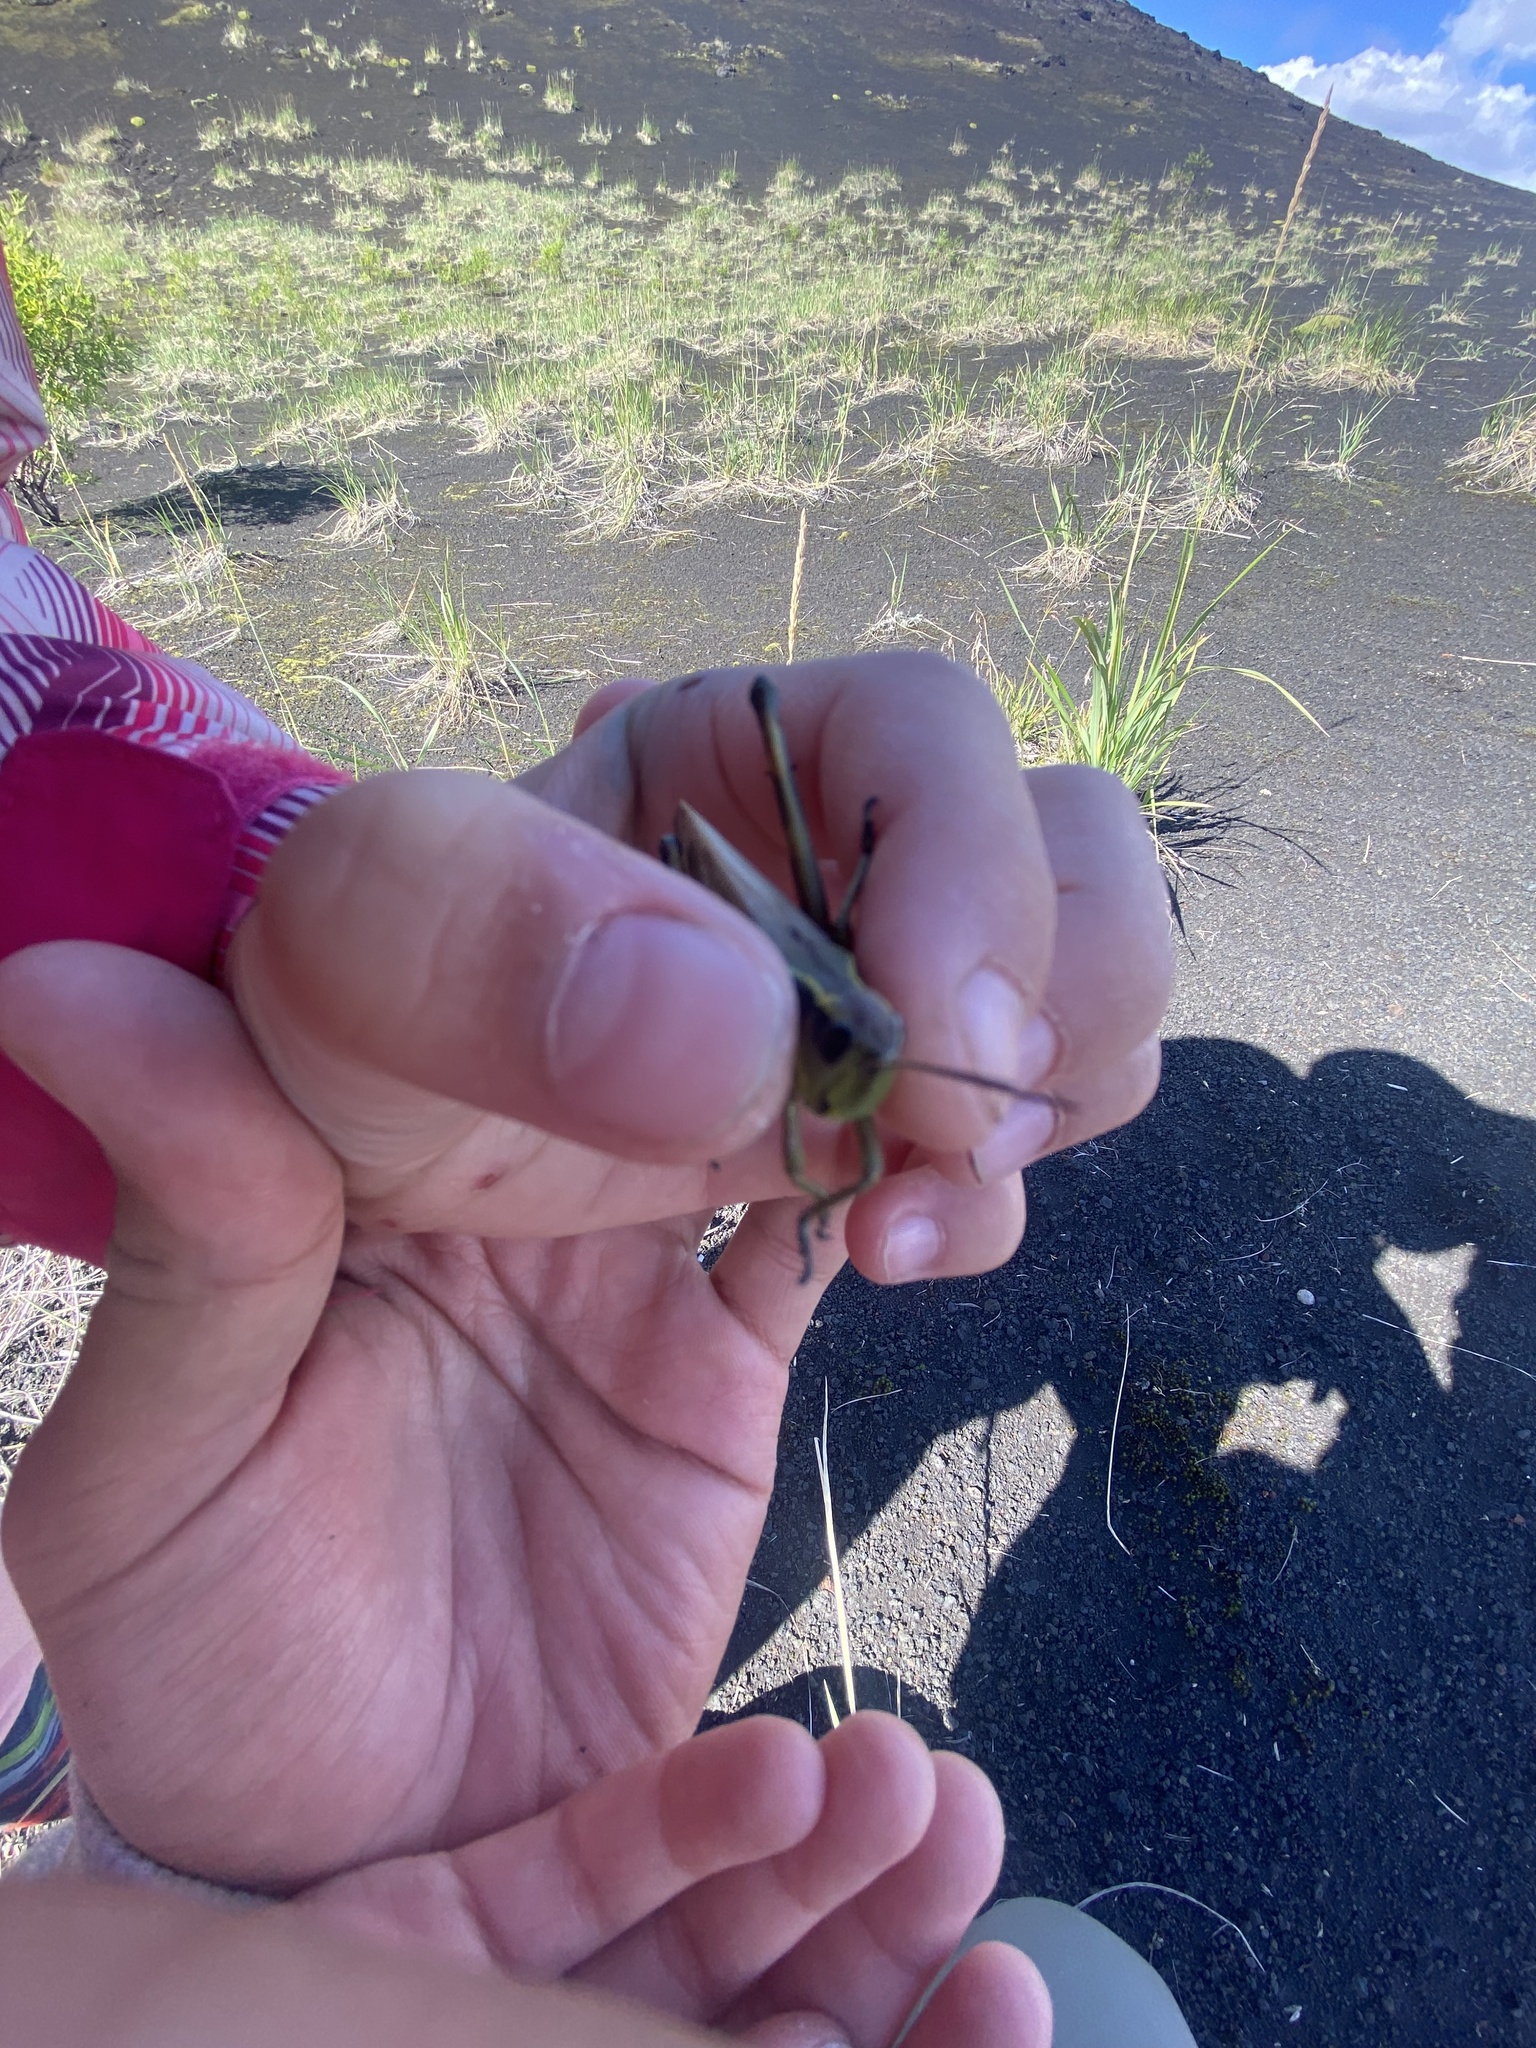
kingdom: Animalia
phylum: Arthropoda
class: Insecta
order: Orthoptera
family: Acrididae
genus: Stethophyma
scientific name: Stethophyma grossum
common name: Large marsh grasshopper
